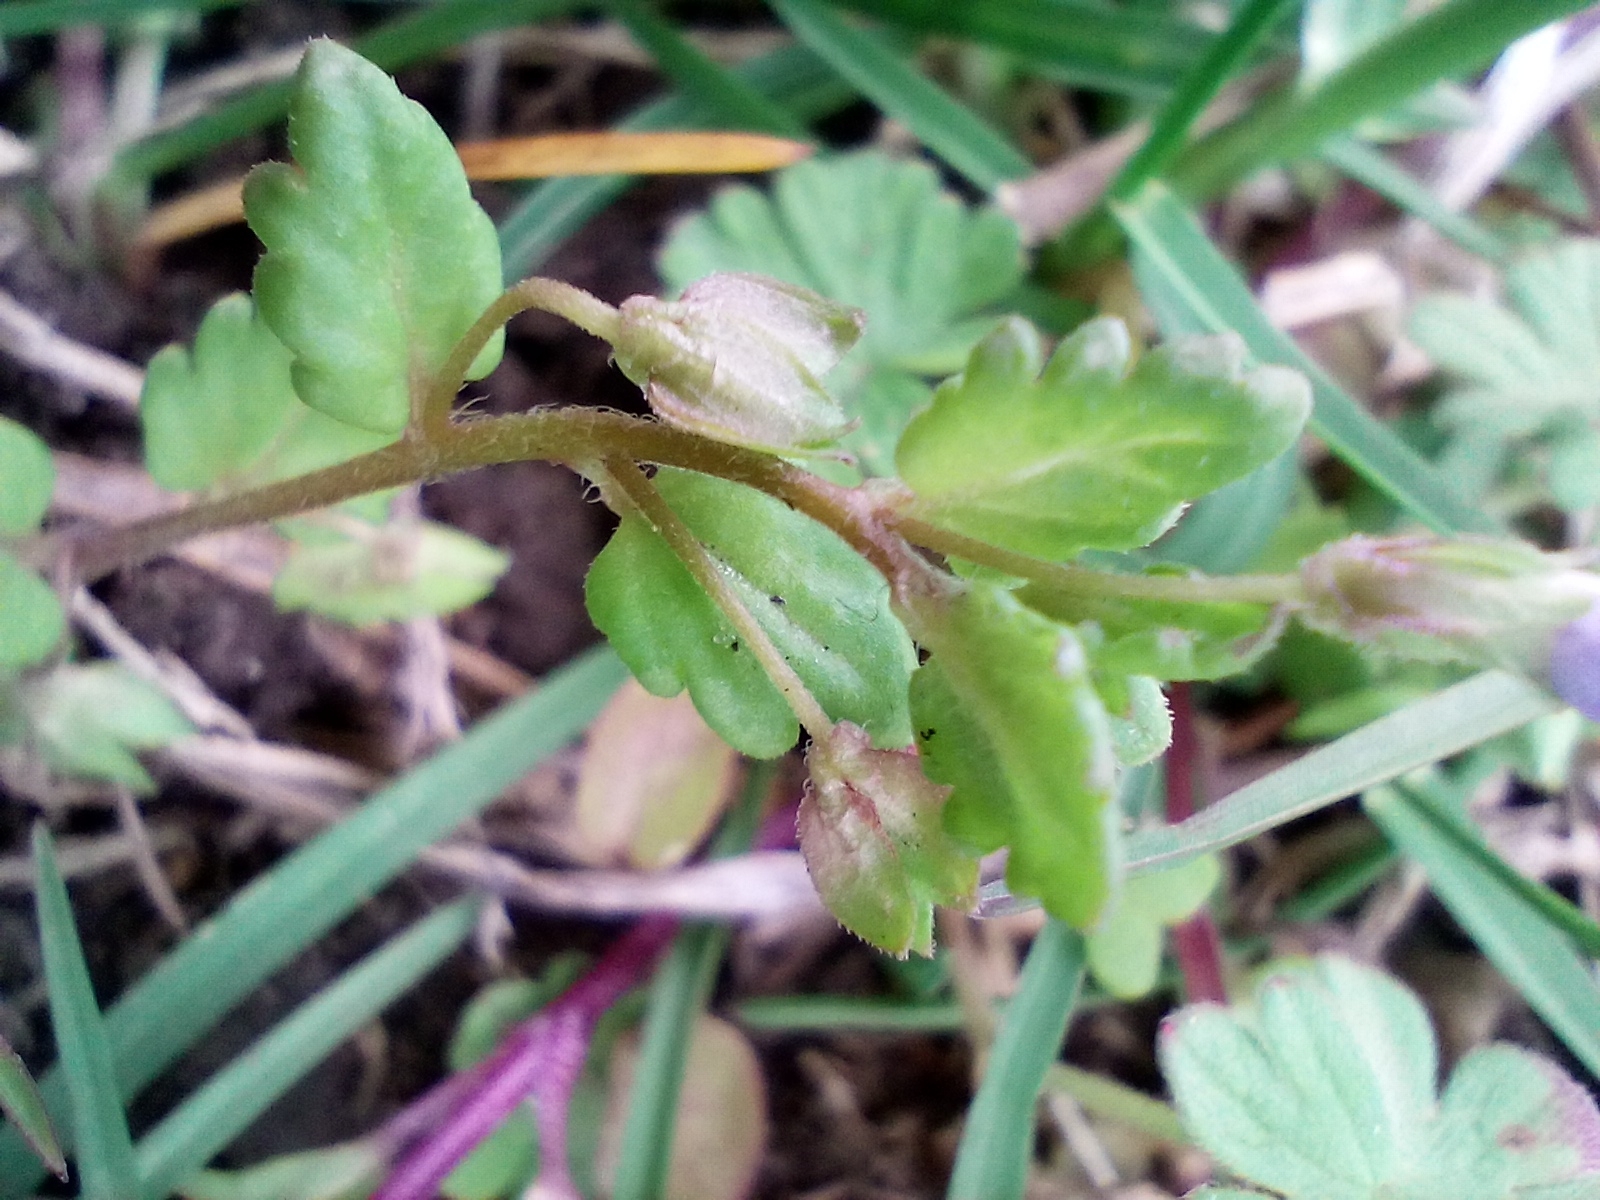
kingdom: Plantae
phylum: Tracheophyta
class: Magnoliopsida
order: Lamiales
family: Plantaginaceae
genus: Veronica
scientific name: Veronica polita
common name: Grey field-speedwell
